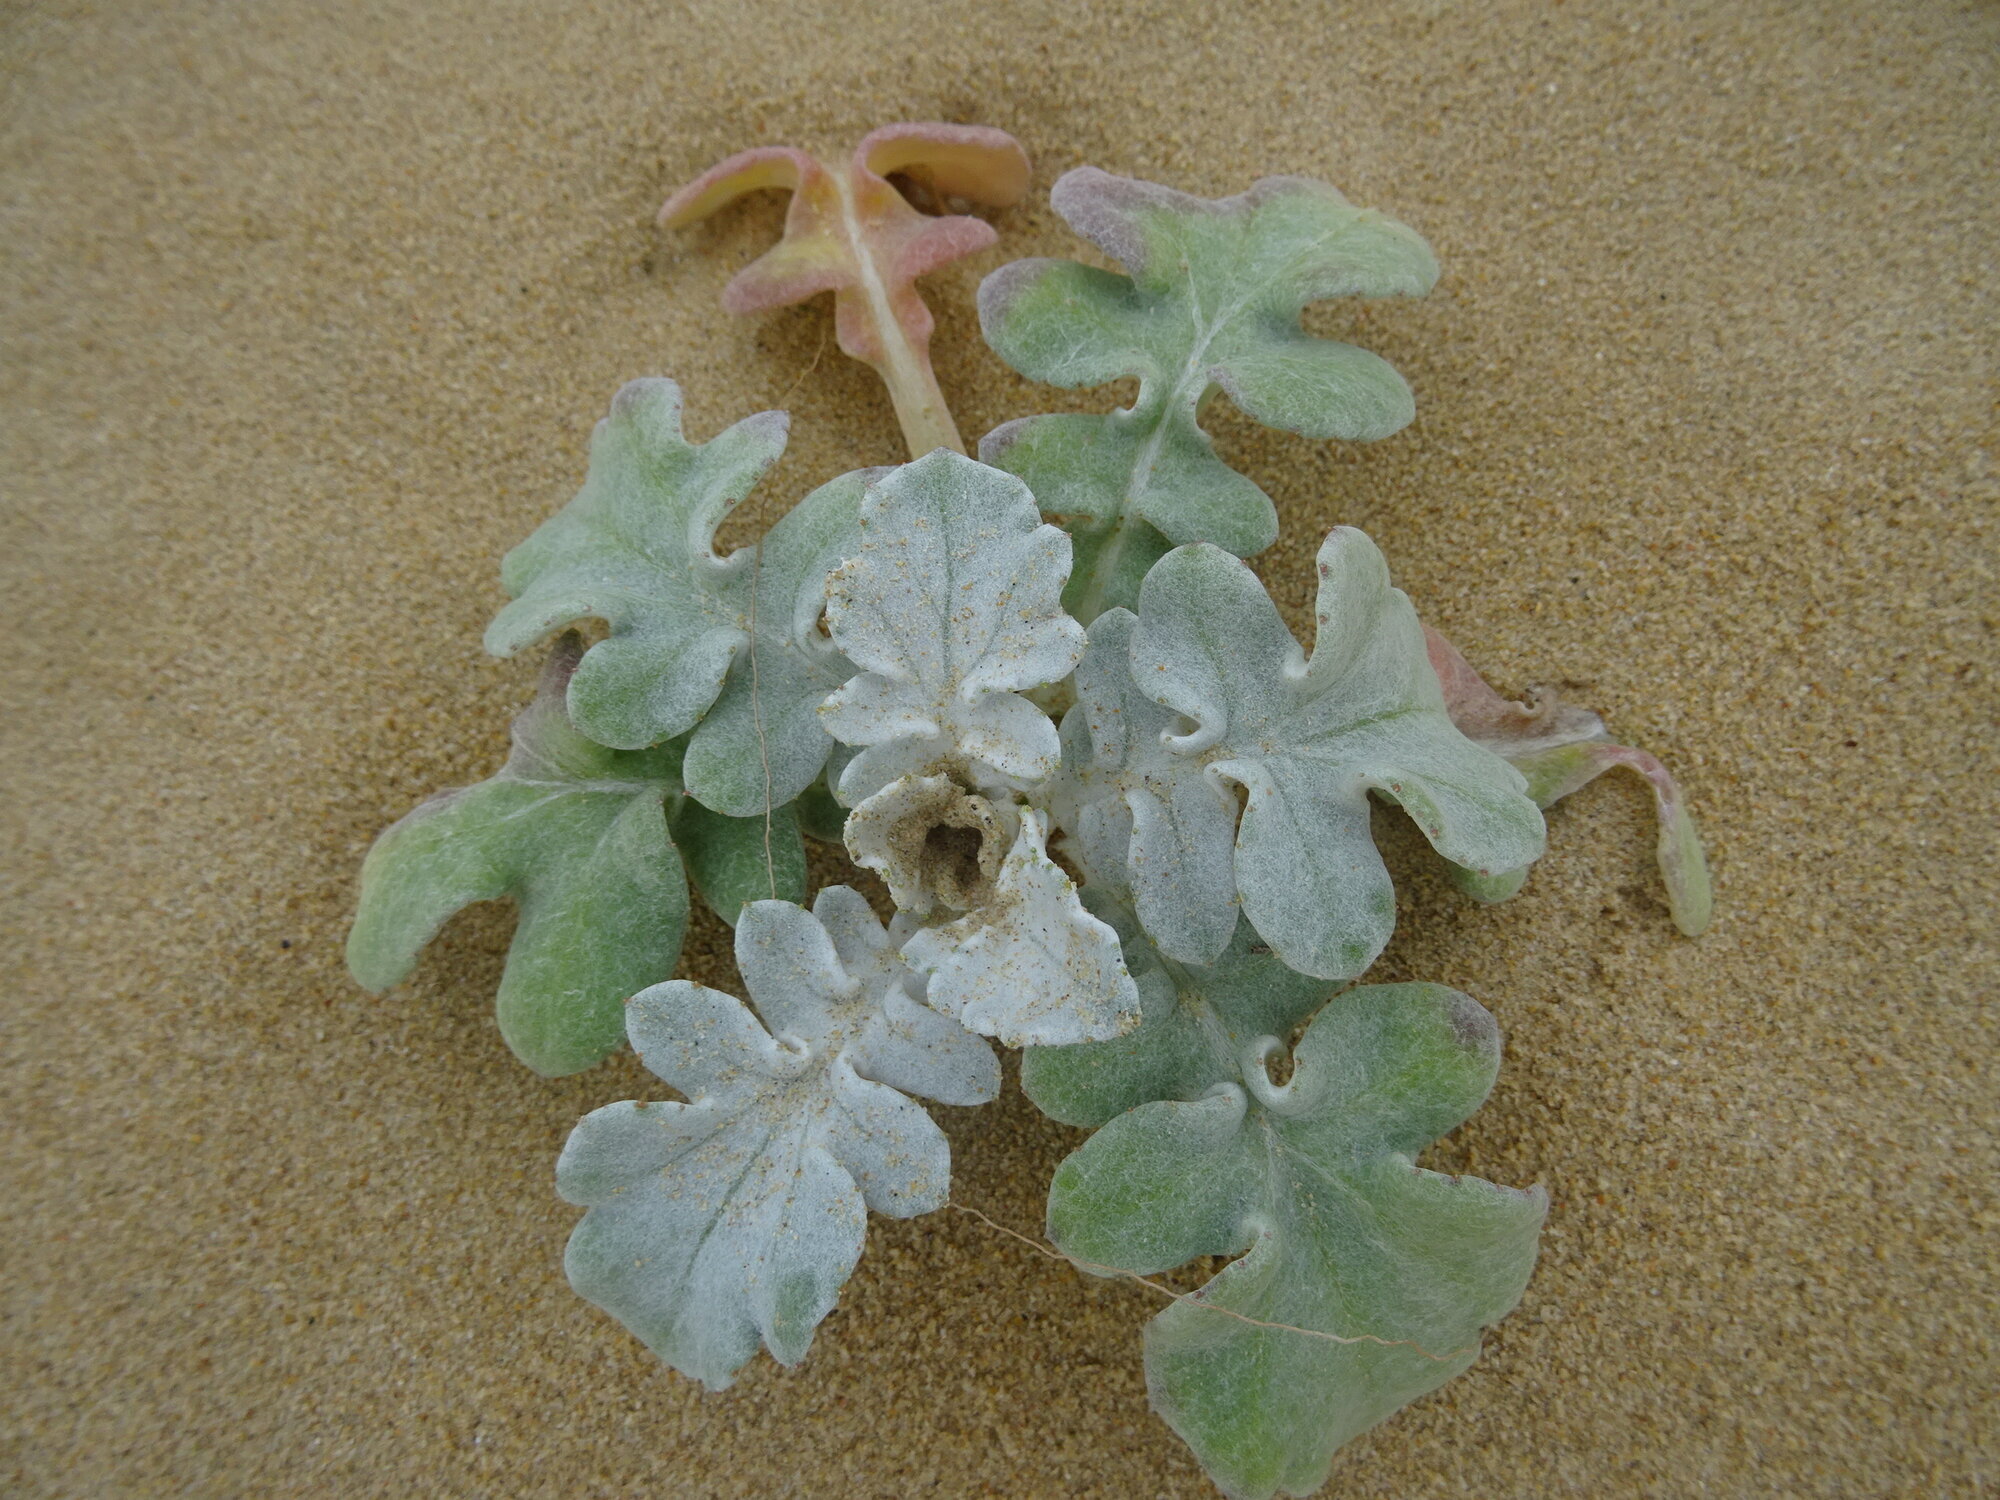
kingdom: Plantae
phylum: Tracheophyta
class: Magnoliopsida
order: Asterales
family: Asteraceae
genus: Arctotheca
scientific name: Arctotheca populifolia
